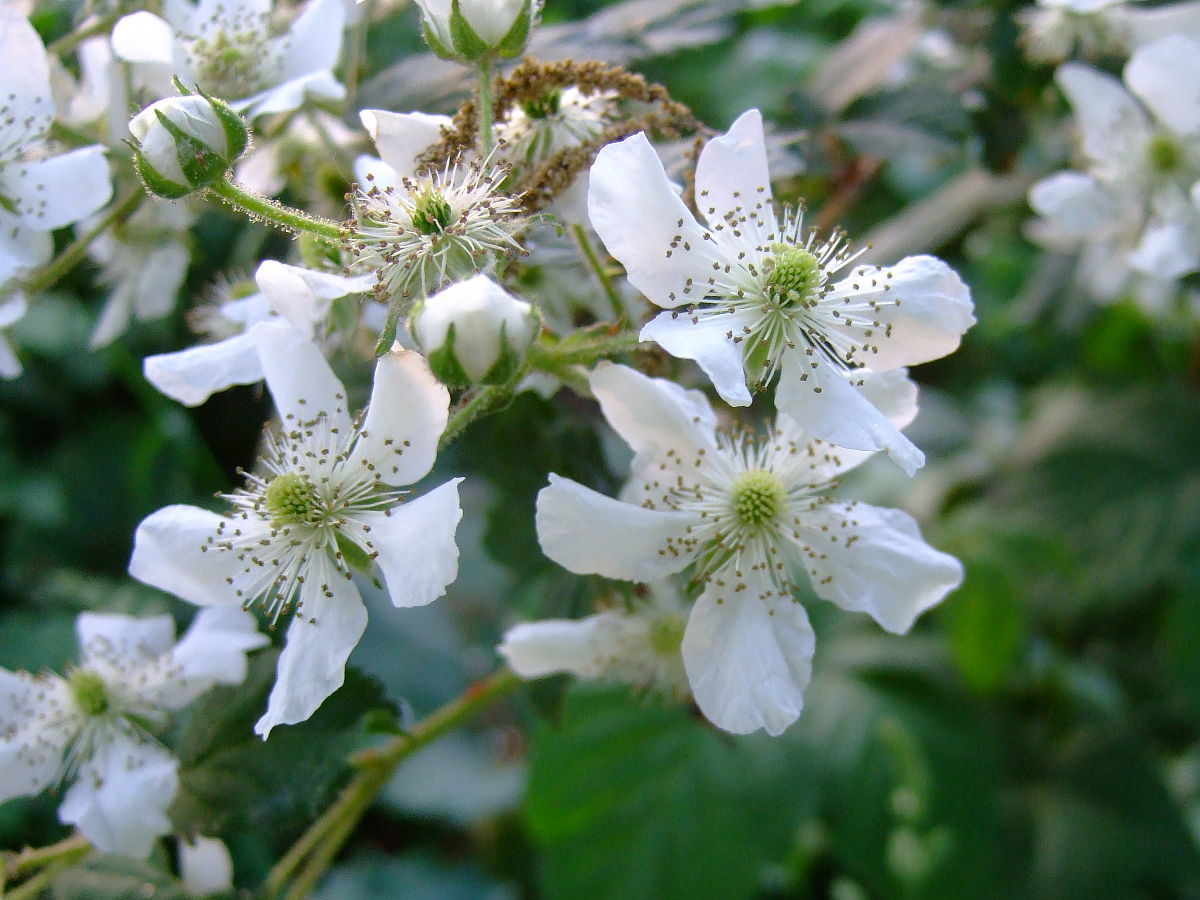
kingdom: Plantae
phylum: Tracheophyta
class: Magnoliopsida
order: Rosales
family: Rosaceae
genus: Rubus
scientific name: Rubus allegheniensis
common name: Allegheny blackberry
